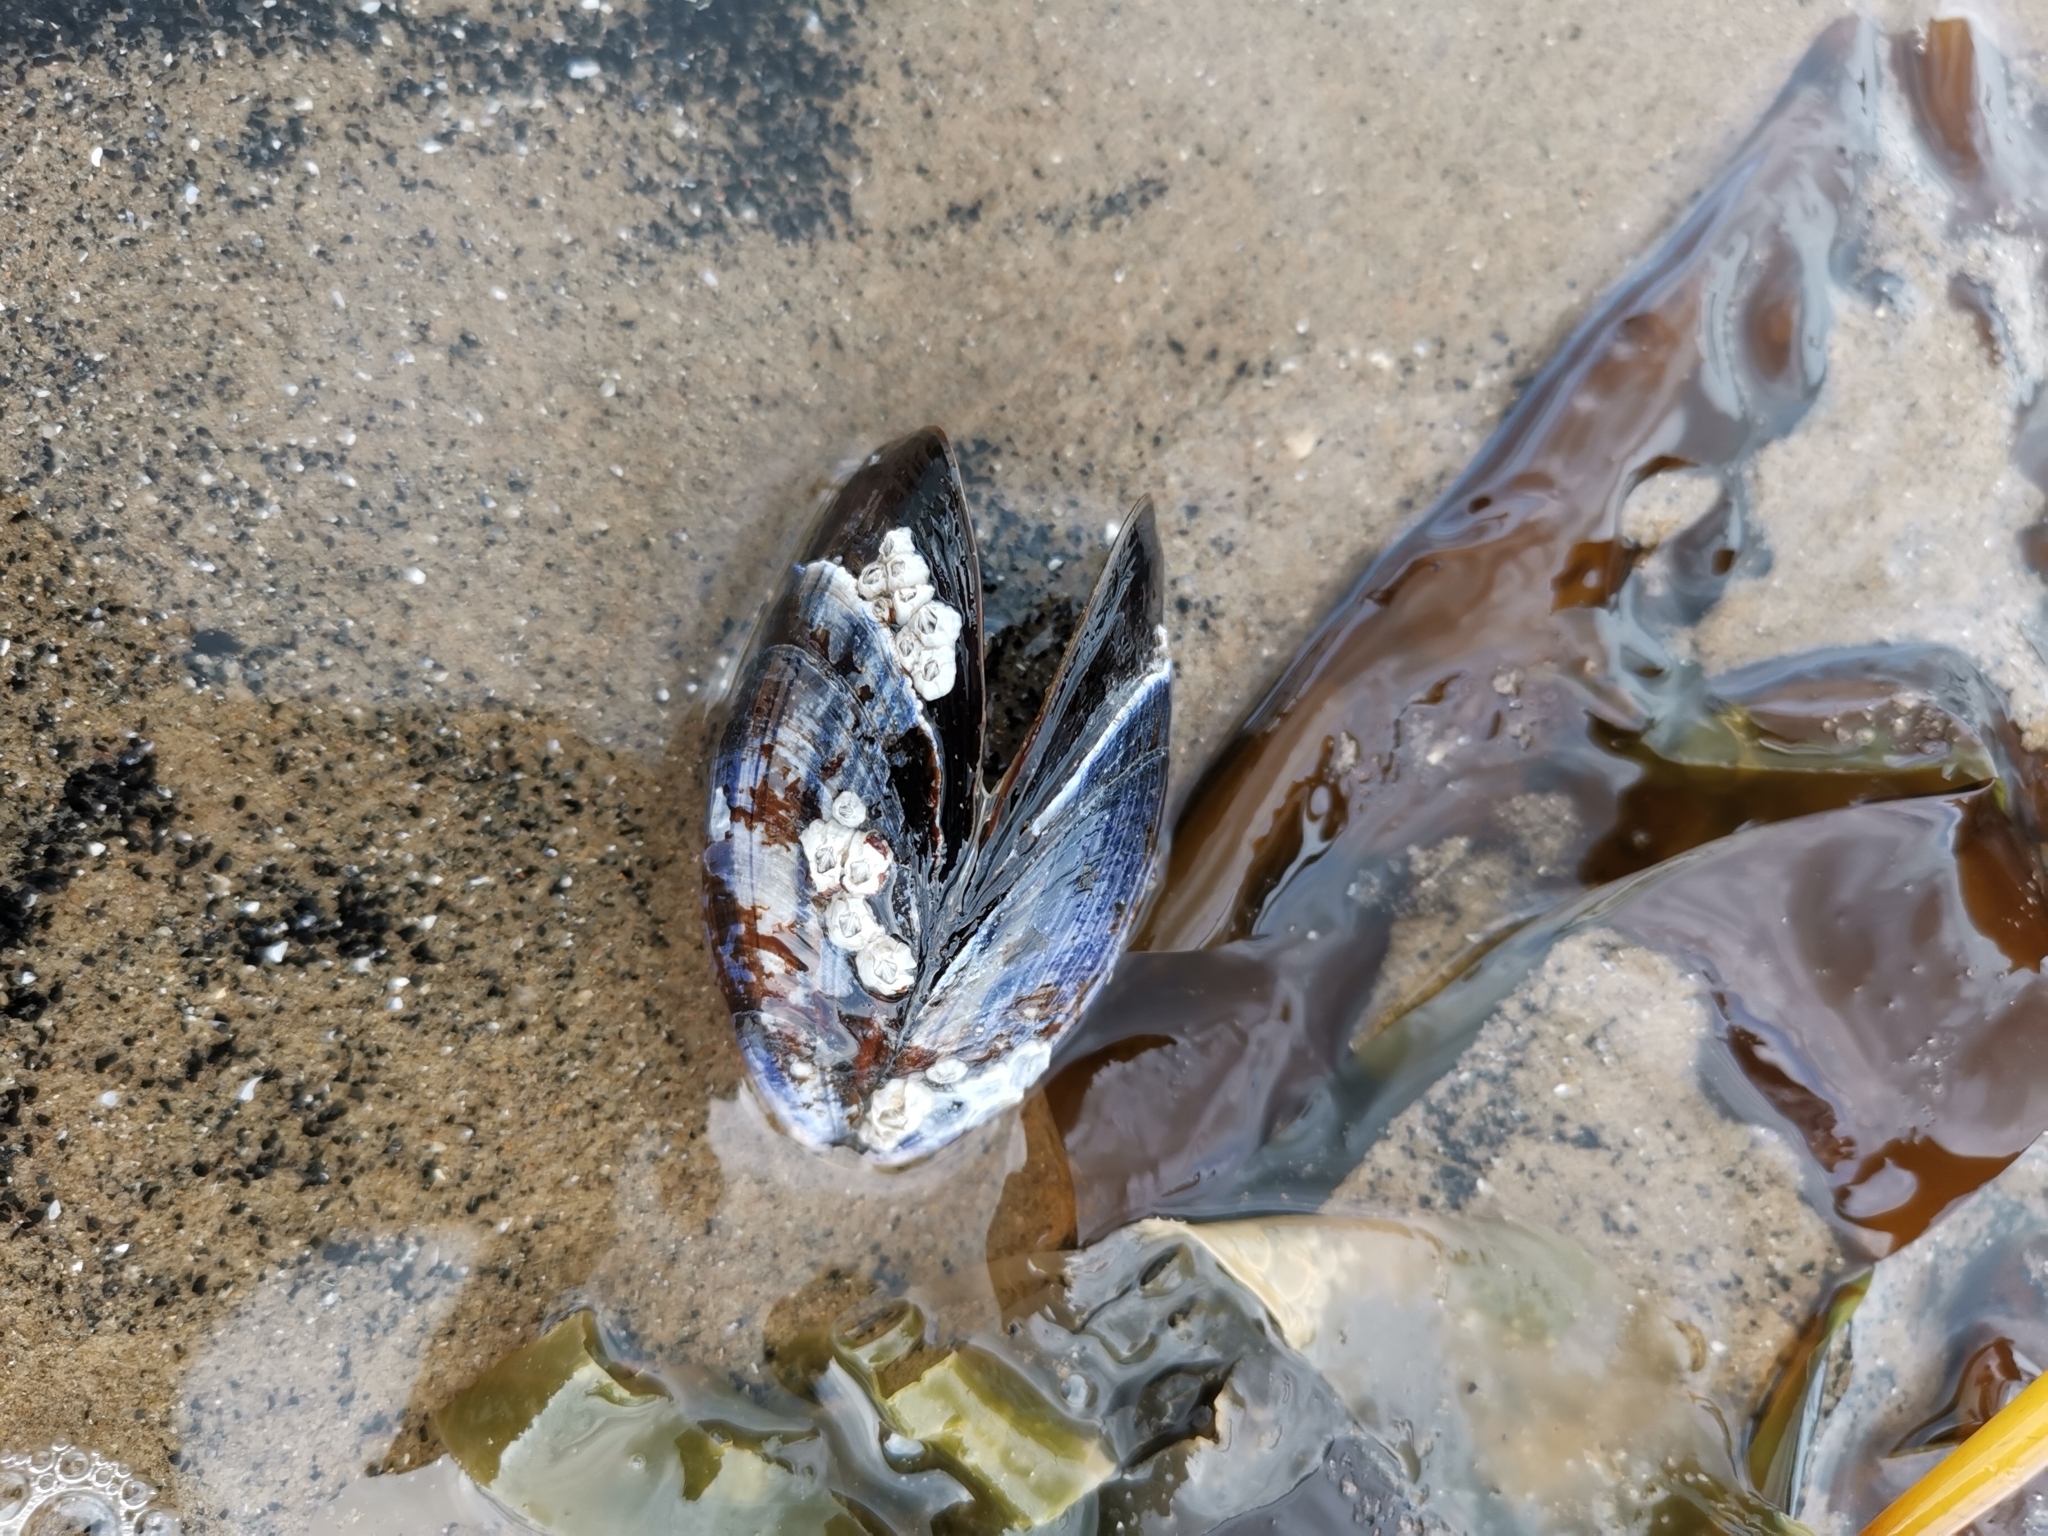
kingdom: Animalia
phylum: Mollusca
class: Bivalvia
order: Mytilida
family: Mytilidae
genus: Mytilus
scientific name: Mytilus edulis
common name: Blue mussel
